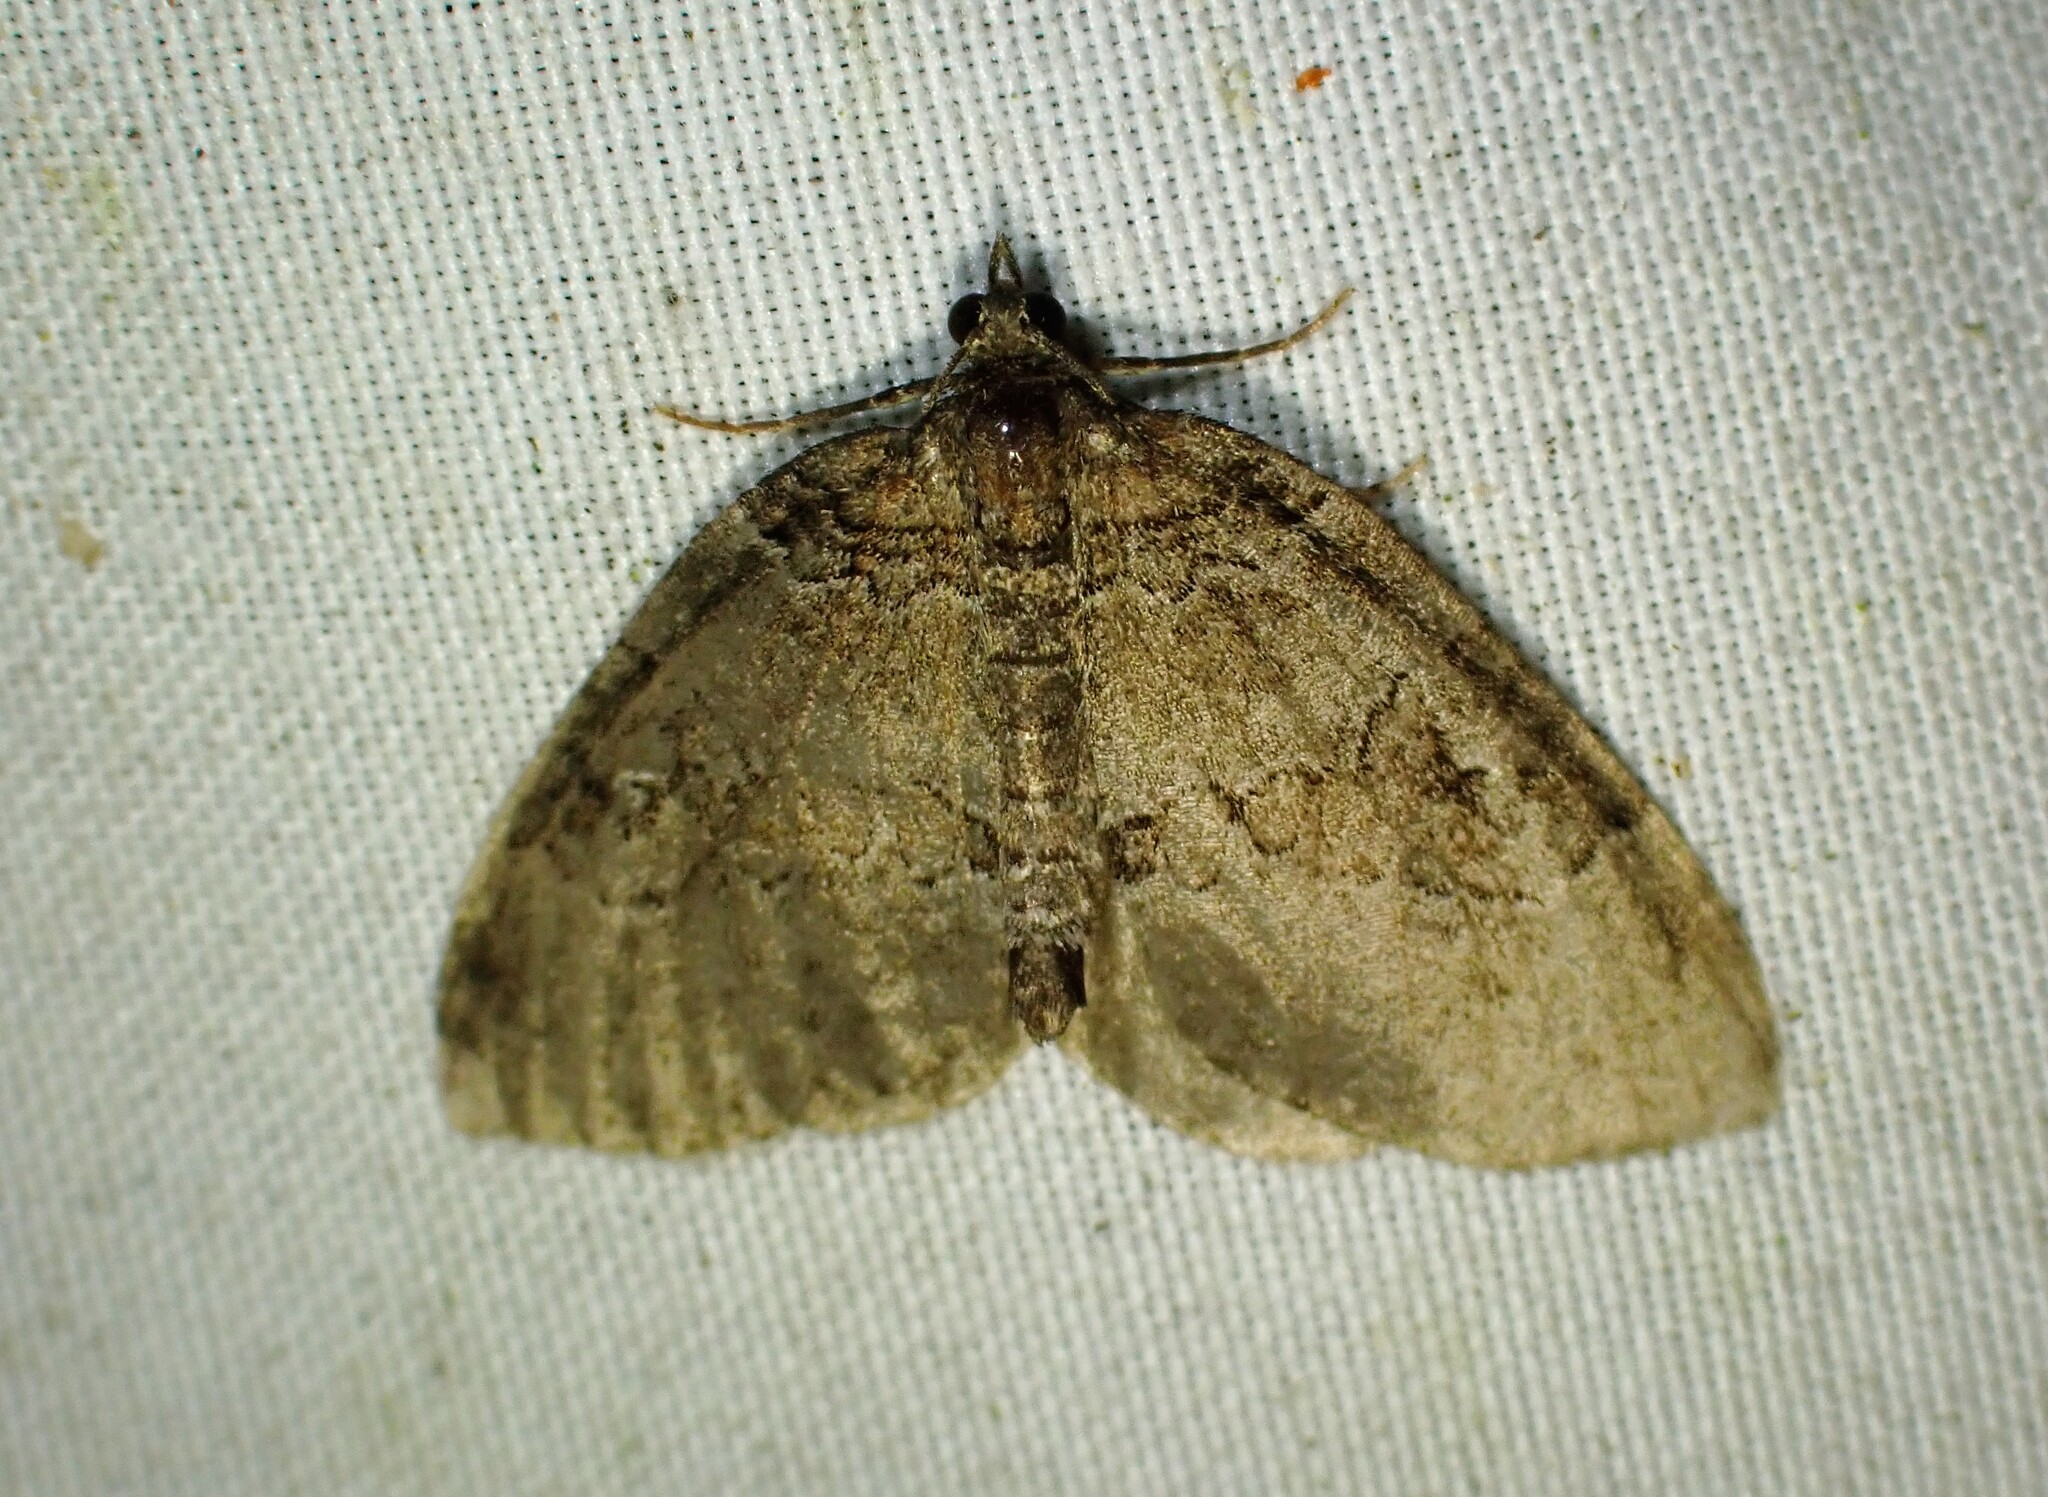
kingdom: Animalia
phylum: Arthropoda
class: Insecta
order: Lepidoptera
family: Geometridae
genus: Plemyria
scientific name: Plemyria georgii
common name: George's carpet moth
